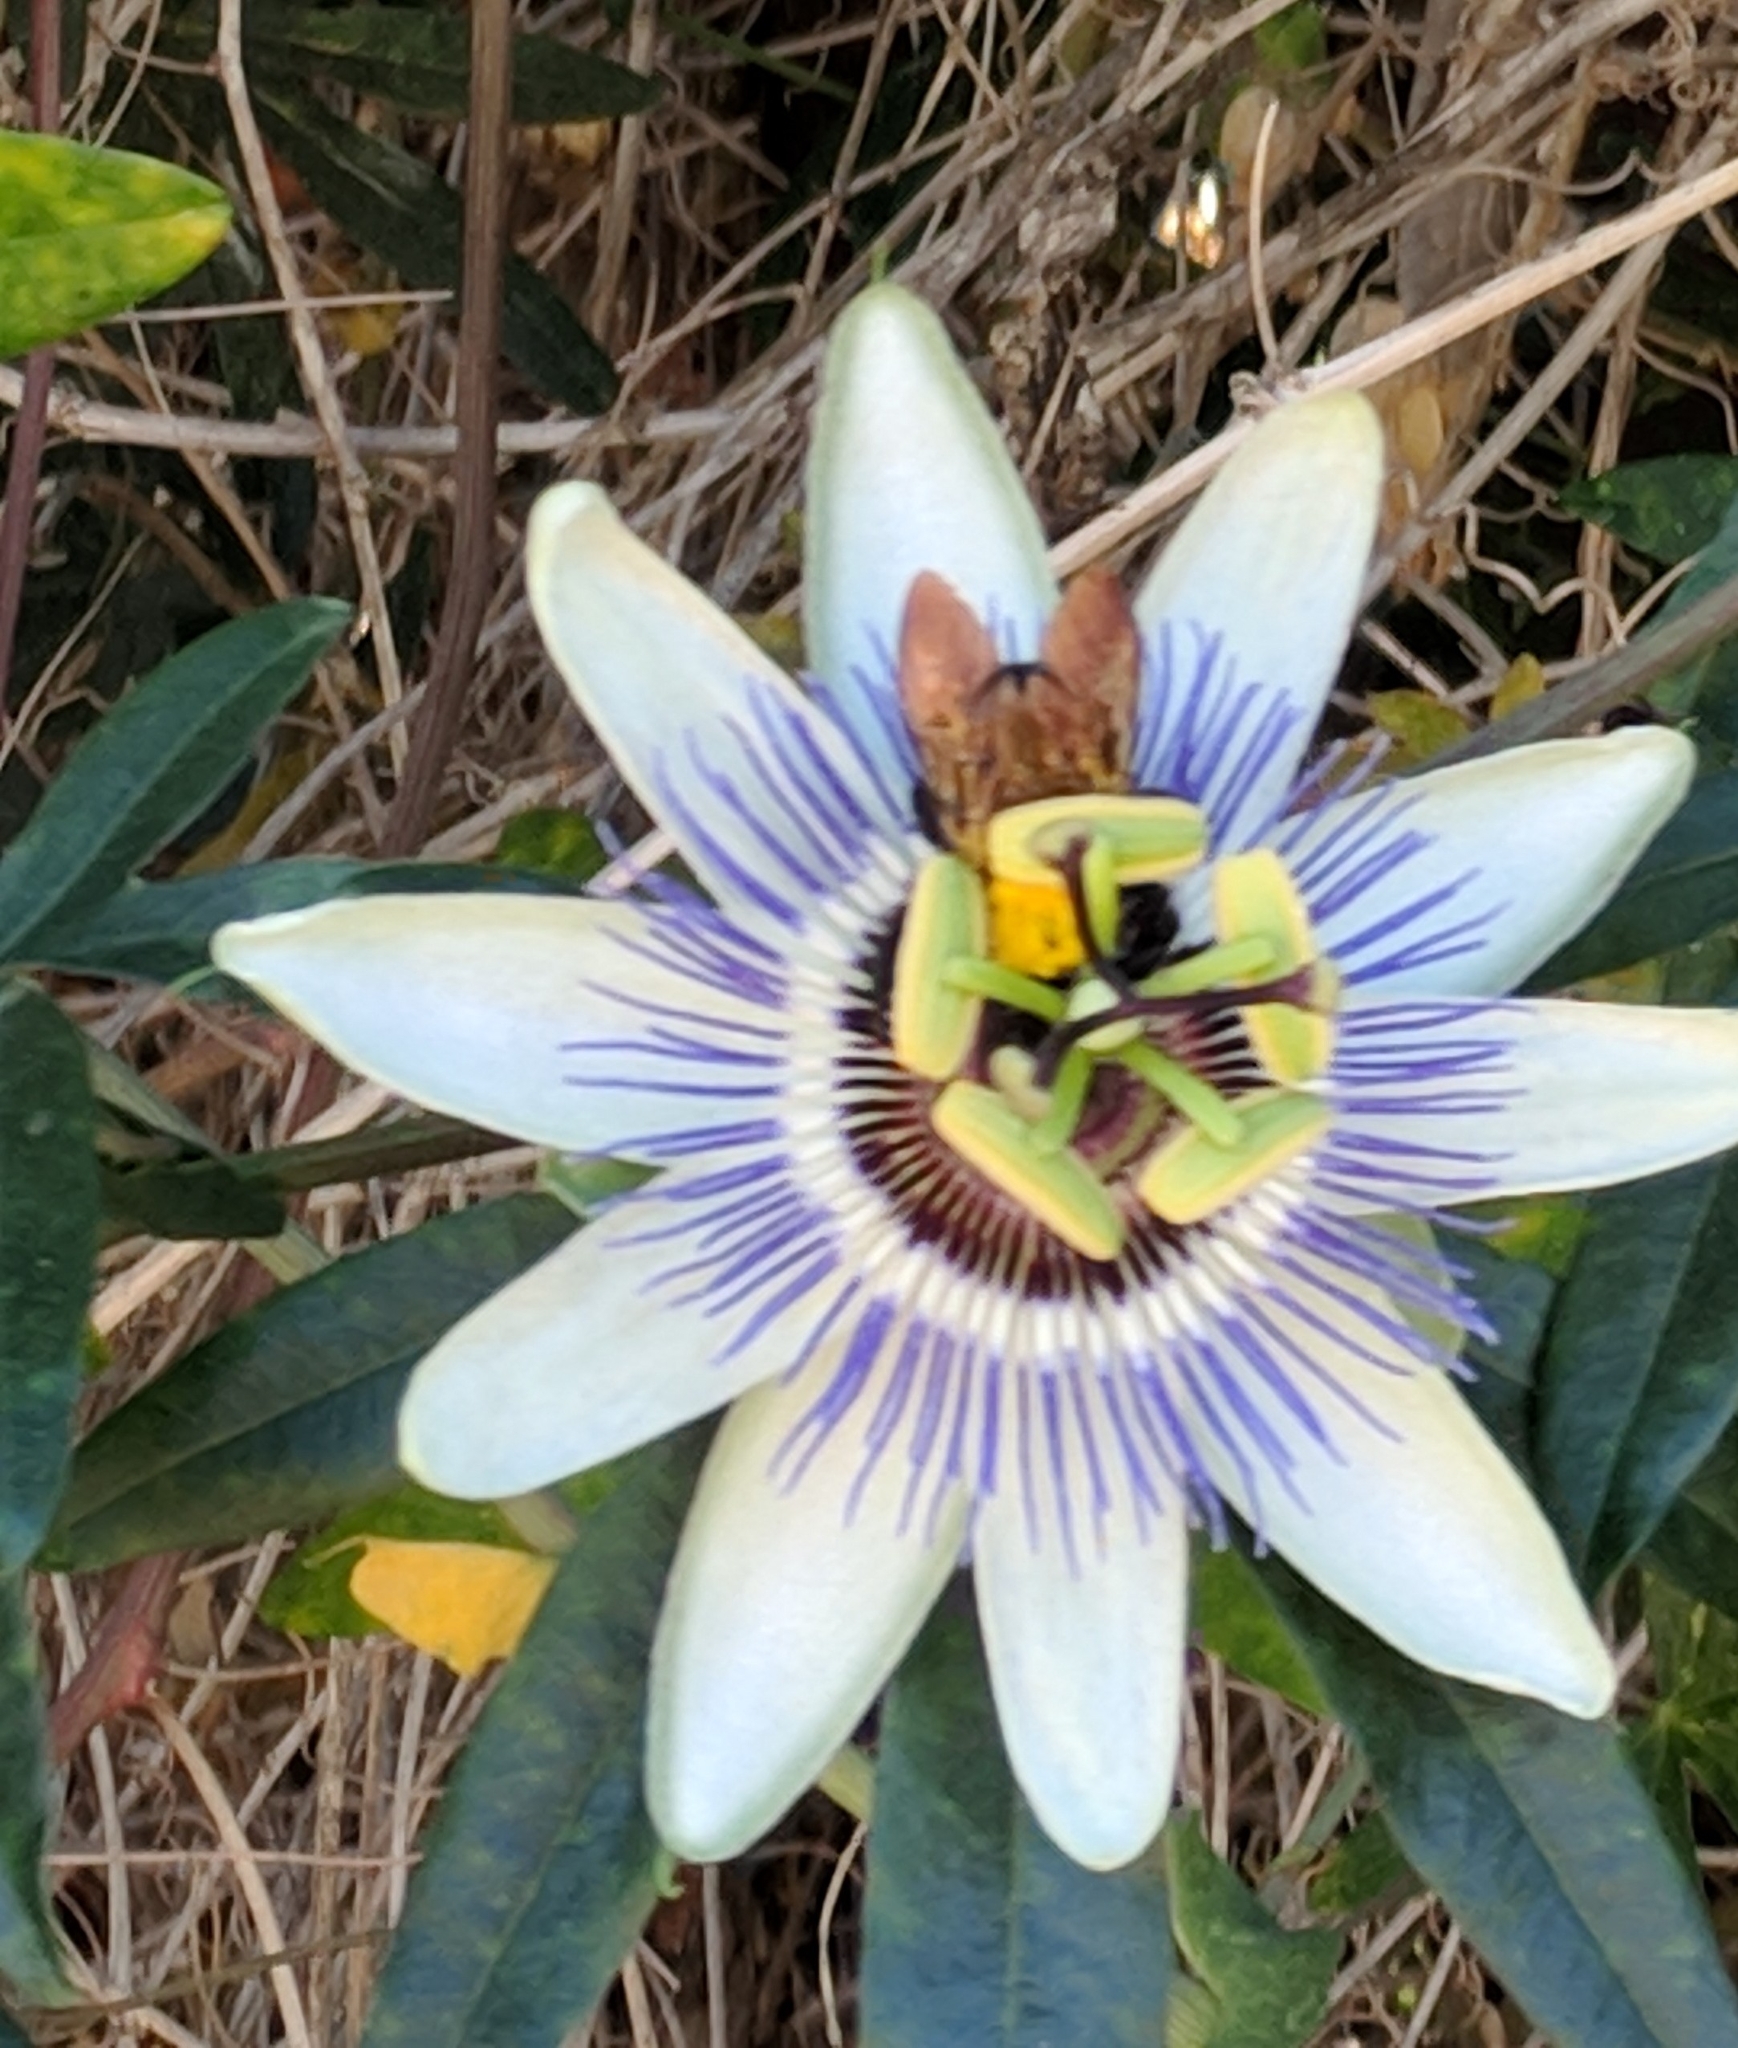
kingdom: Animalia
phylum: Arthropoda
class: Insecta
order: Hymenoptera
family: Apidae
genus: Xylocopa
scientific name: Xylocopa sonorina
